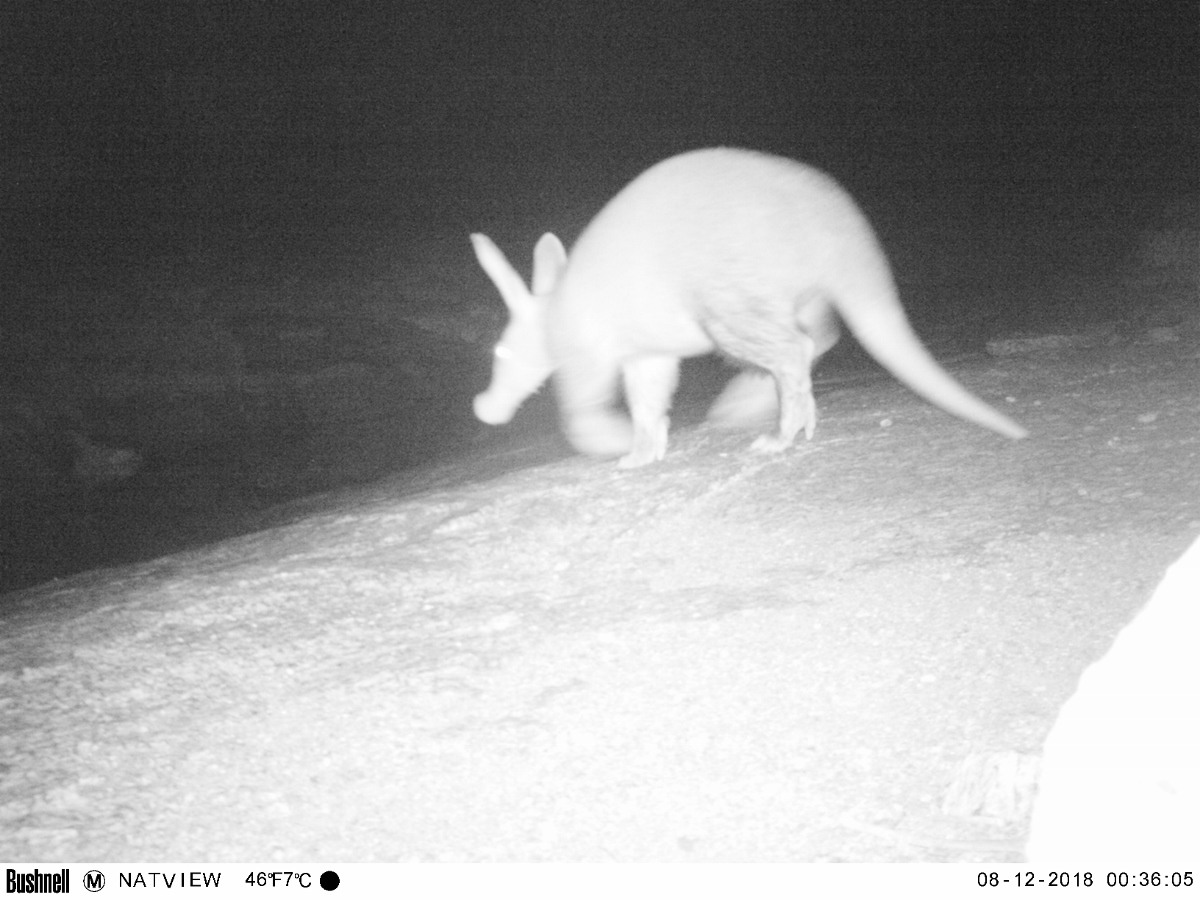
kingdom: Animalia
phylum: Chordata
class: Mammalia
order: Tubulidentata
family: Orycteropodidae
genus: Orycteropus
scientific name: Orycteropus afer
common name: Aardvark
